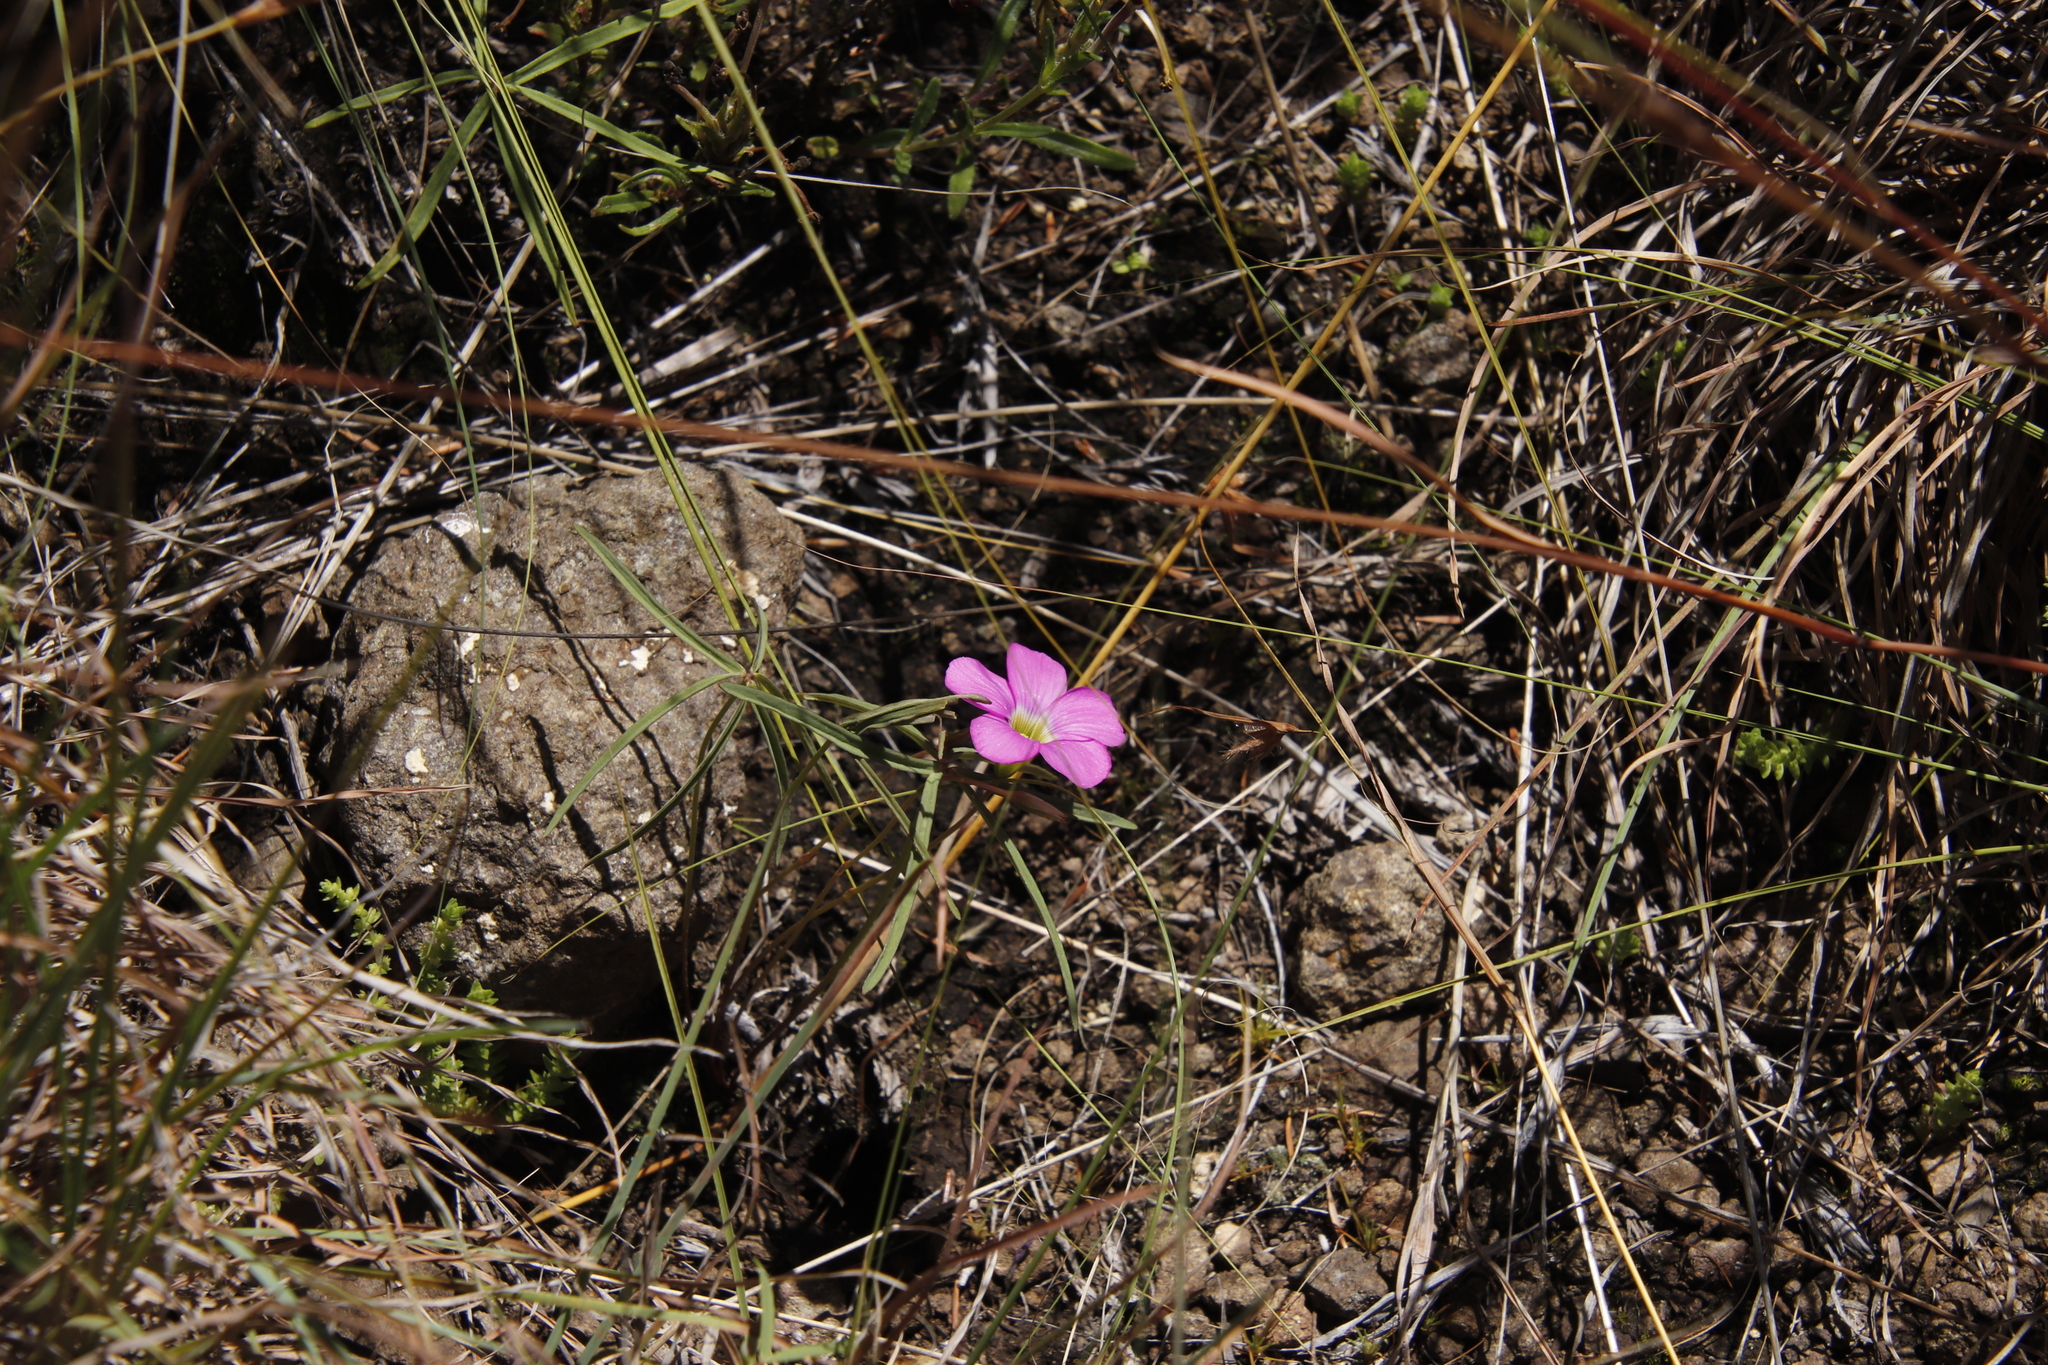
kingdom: Plantae
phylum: Tracheophyta
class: Magnoliopsida
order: Oxalidales
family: Oxalidaceae
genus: Oxalis
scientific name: Oxalis obliquifolia
